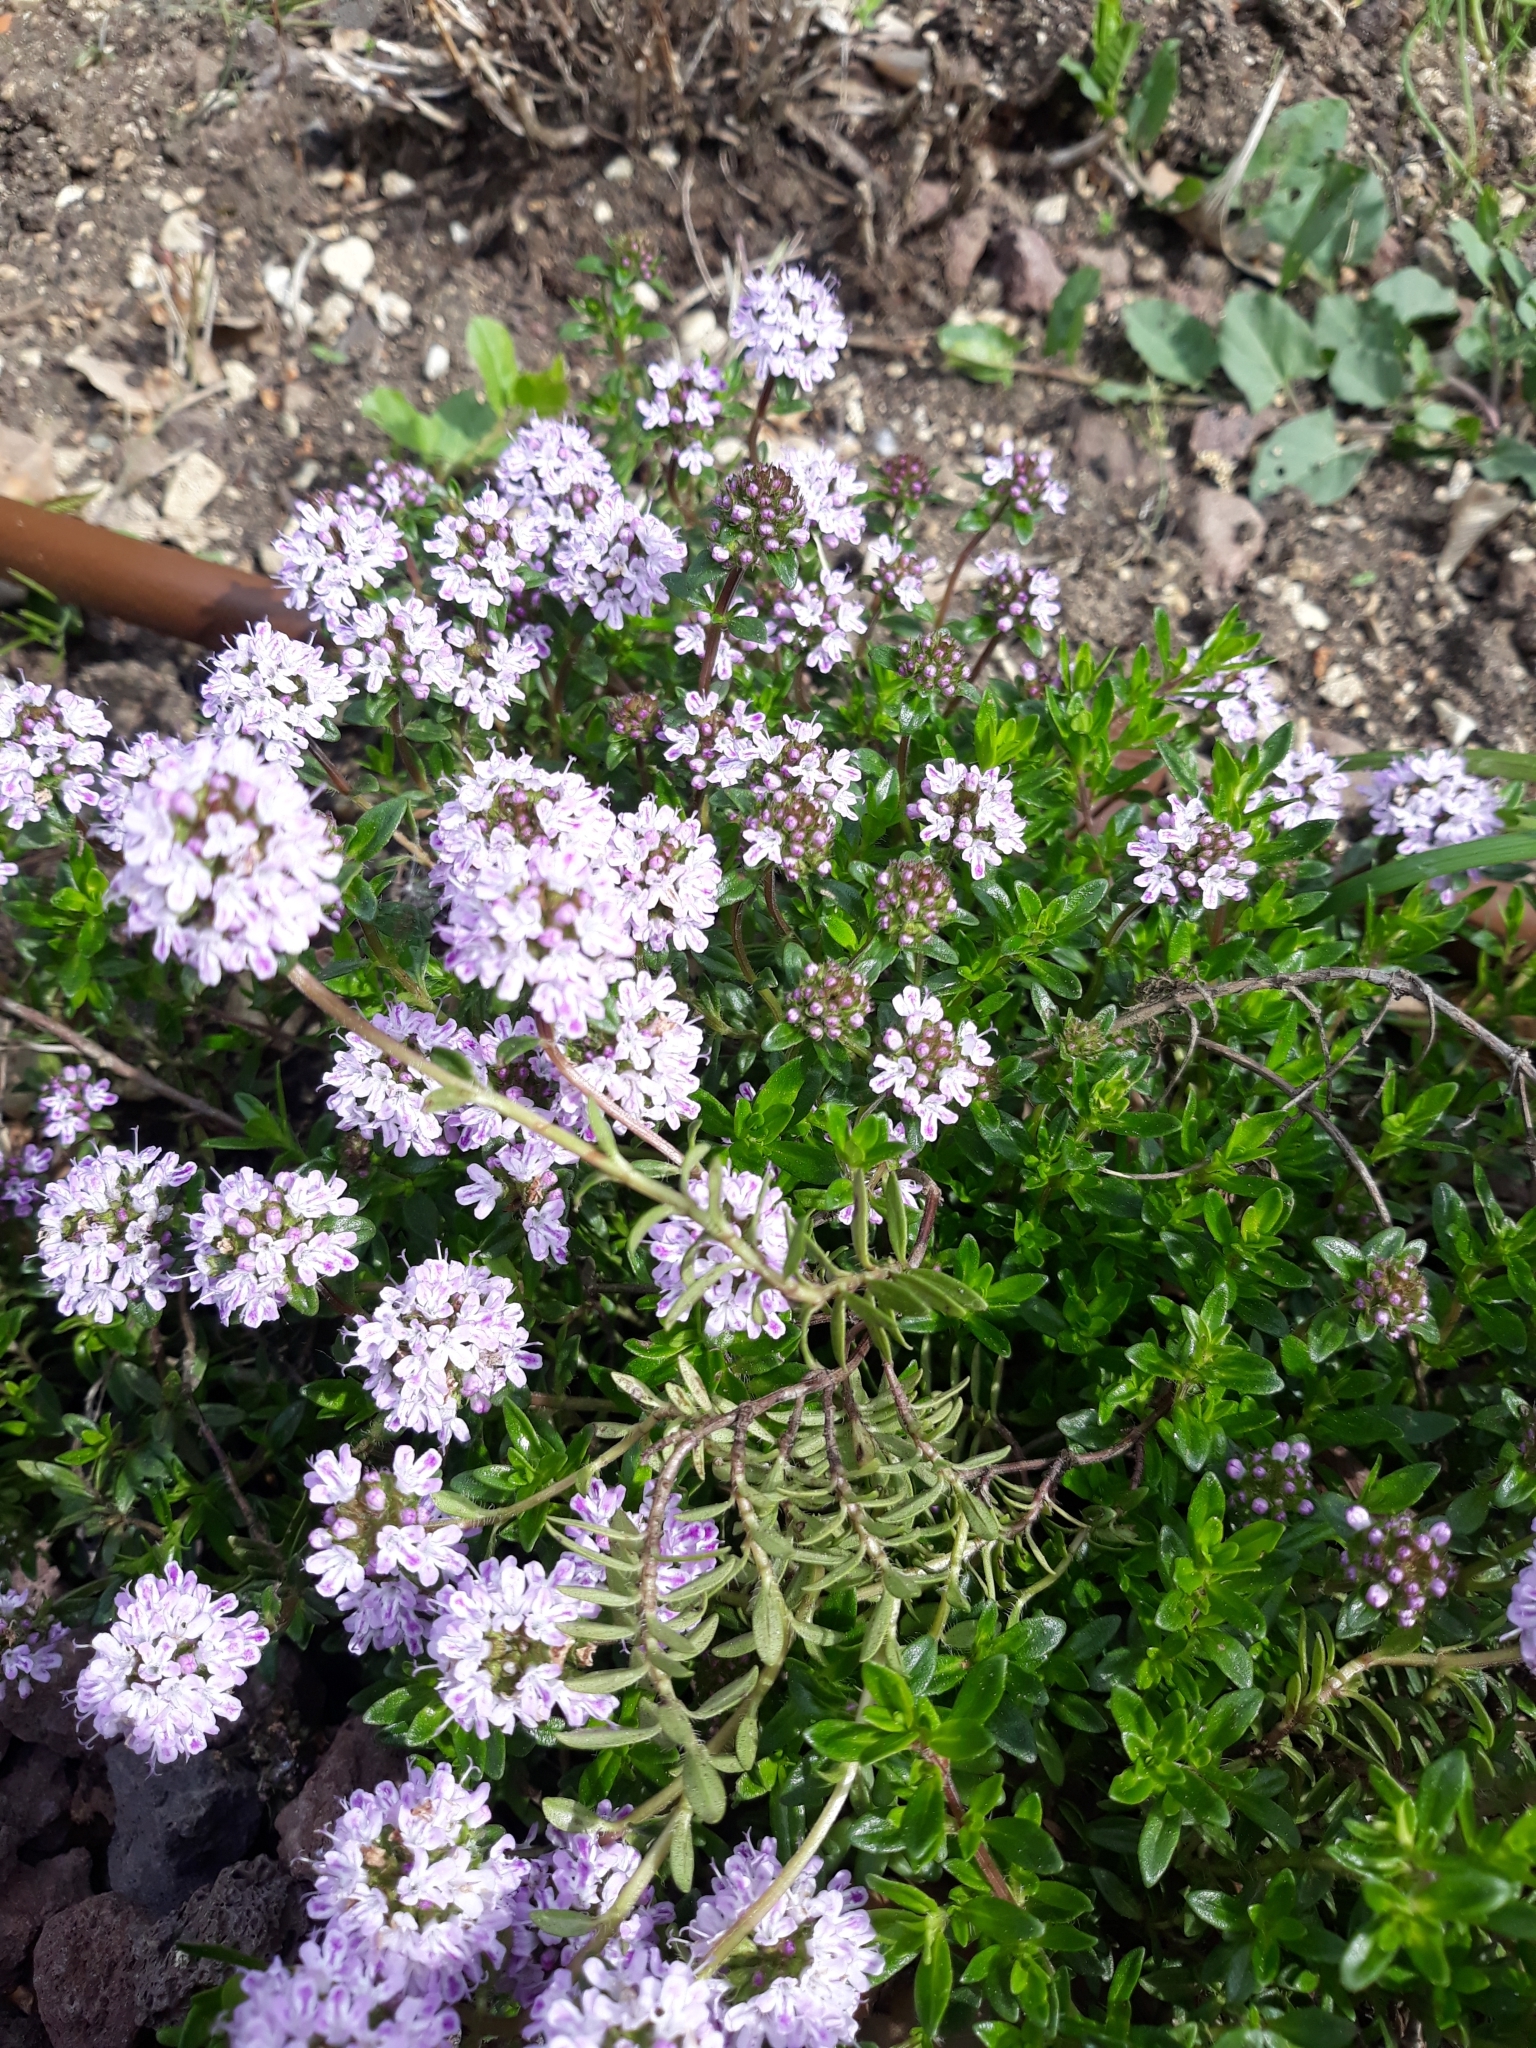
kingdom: Plantae
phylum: Tracheophyta
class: Magnoliopsida
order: Lamiales
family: Lamiaceae
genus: Thymus
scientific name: Thymus pulegioides
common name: Large thyme
